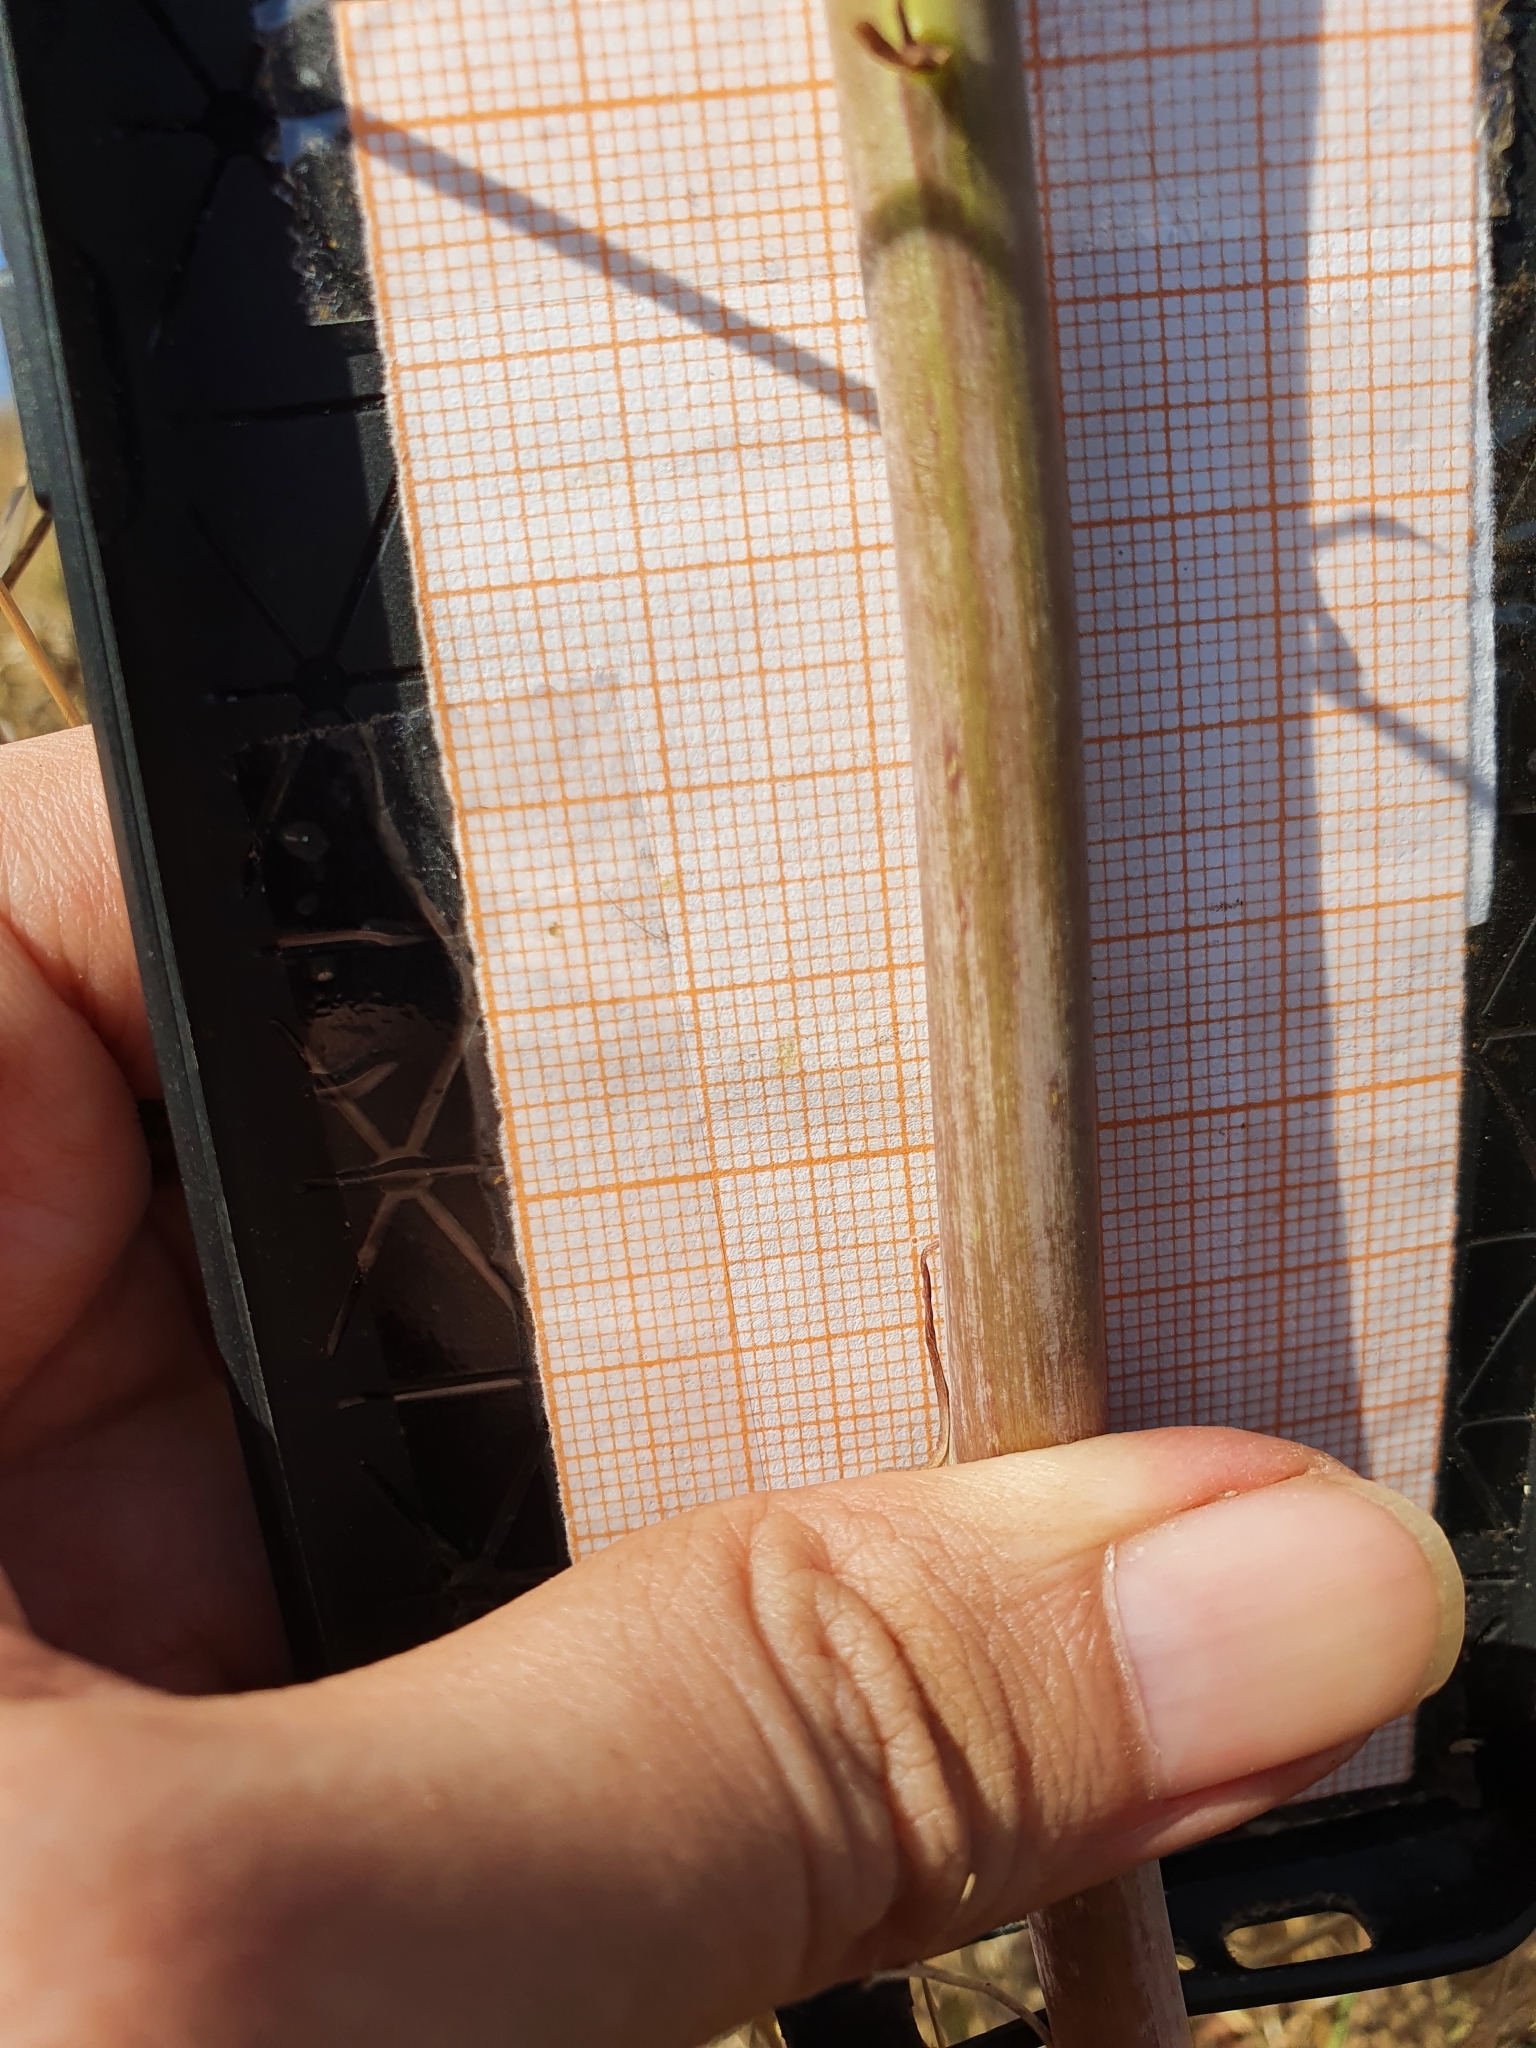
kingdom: Plantae
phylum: Tracheophyta
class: Liliopsida
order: Asparagales
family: Asparagaceae
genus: Drimia
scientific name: Drimia anthericoides
